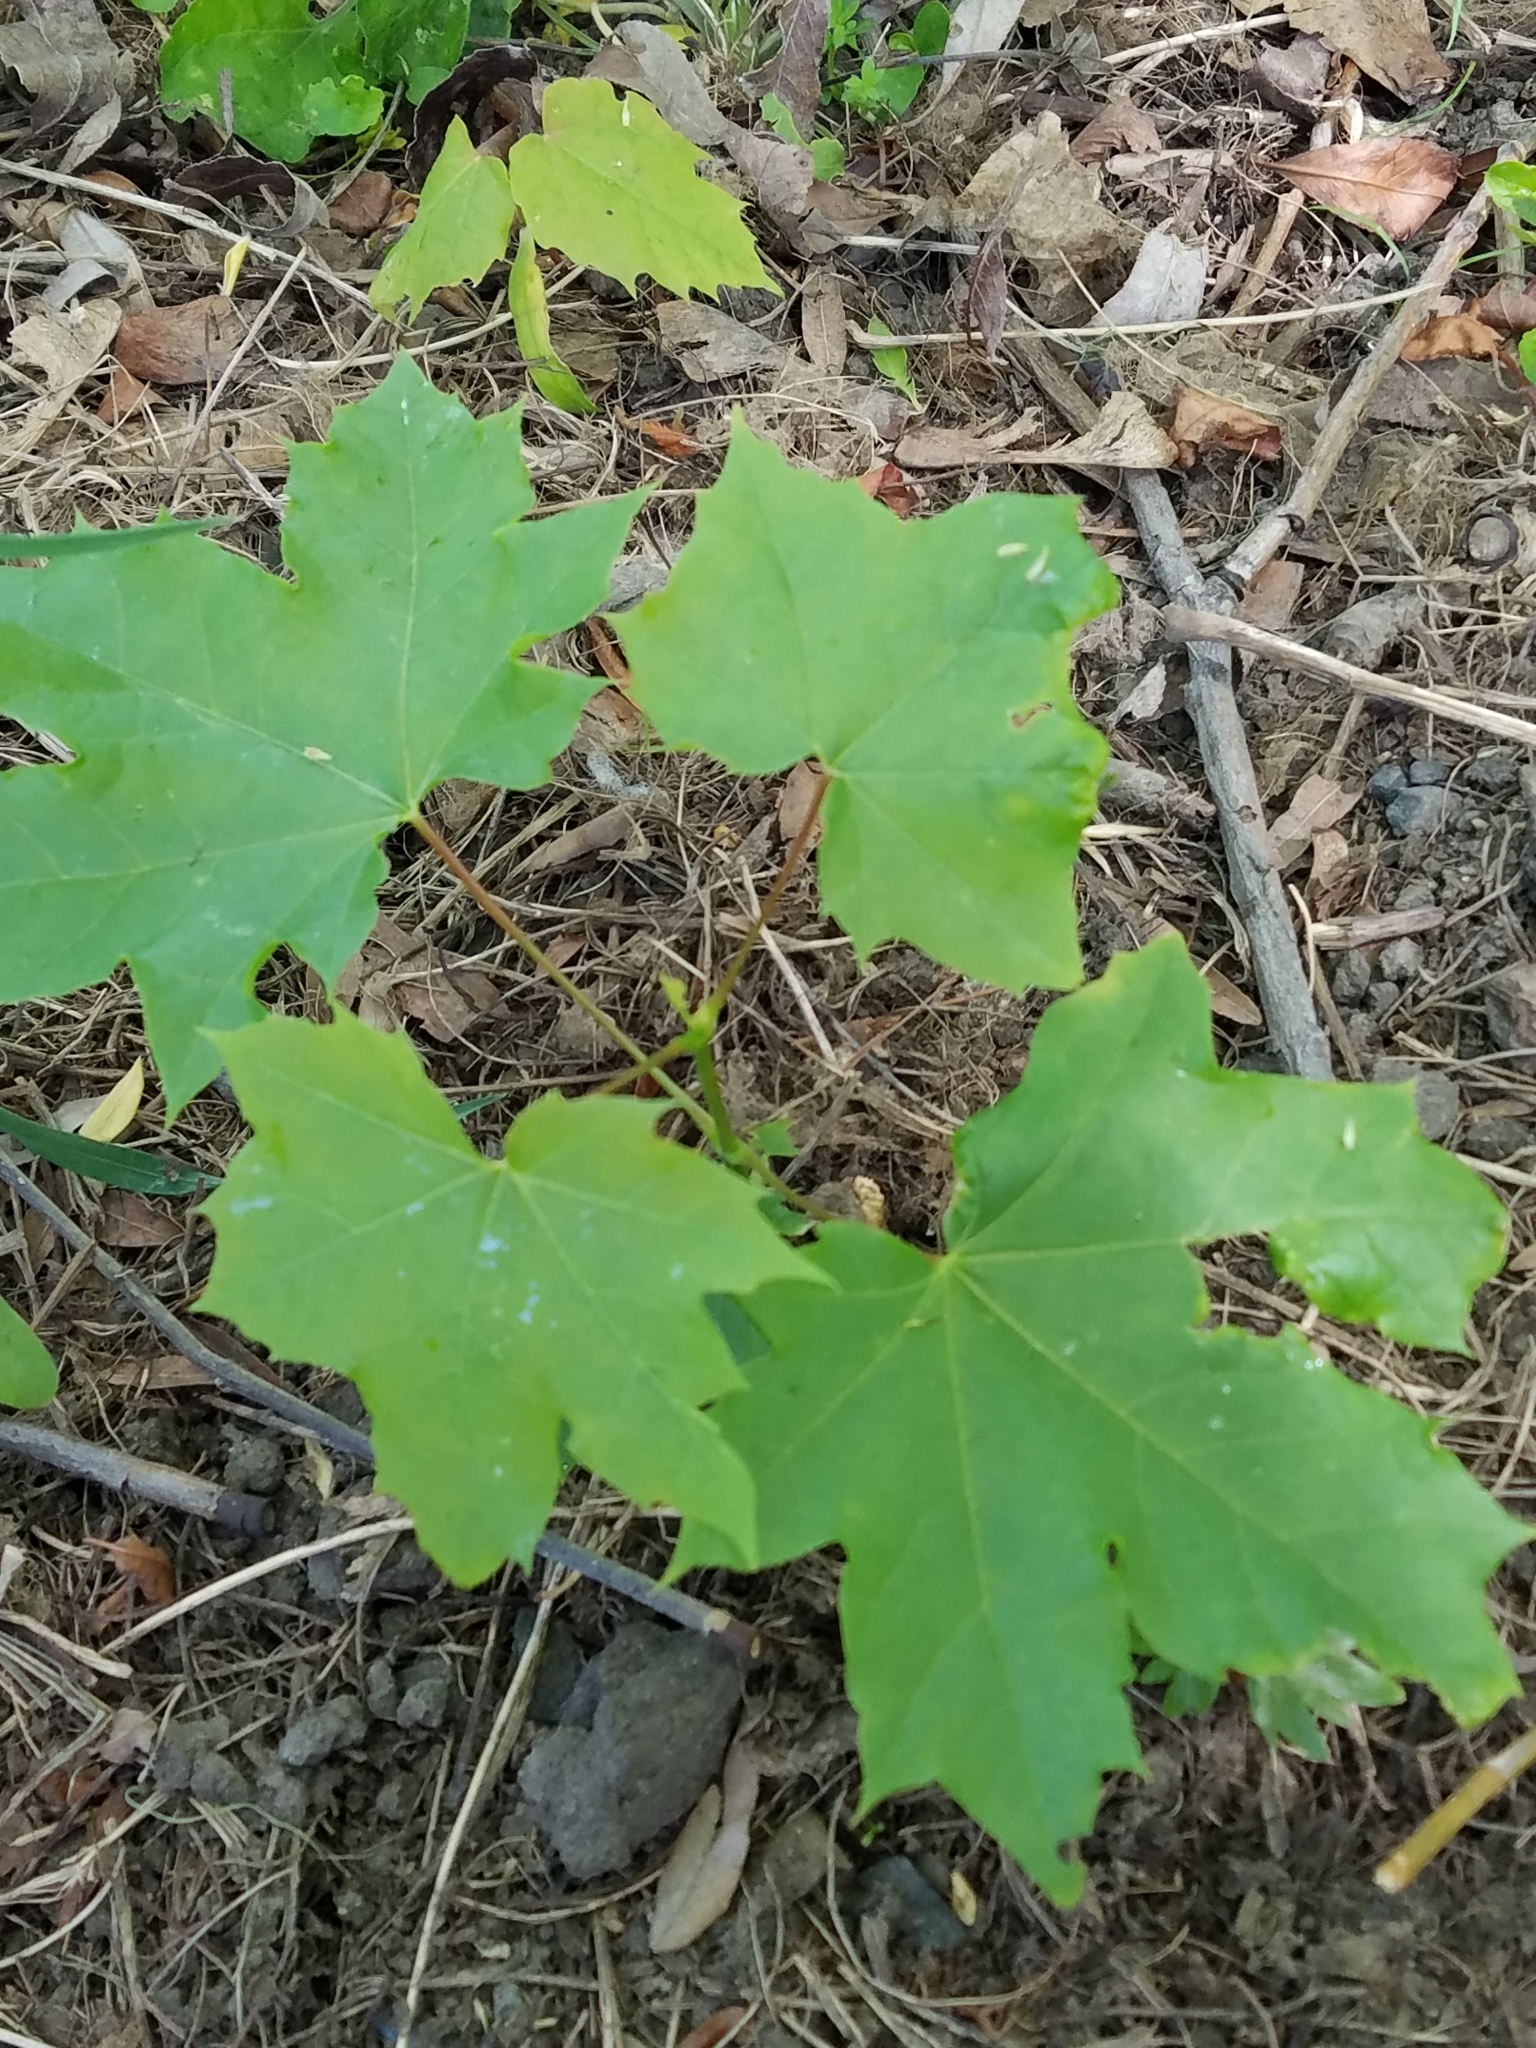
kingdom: Plantae
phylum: Tracheophyta
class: Magnoliopsida
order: Sapindales
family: Sapindaceae
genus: Acer
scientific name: Acer platanoides
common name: Norway maple
